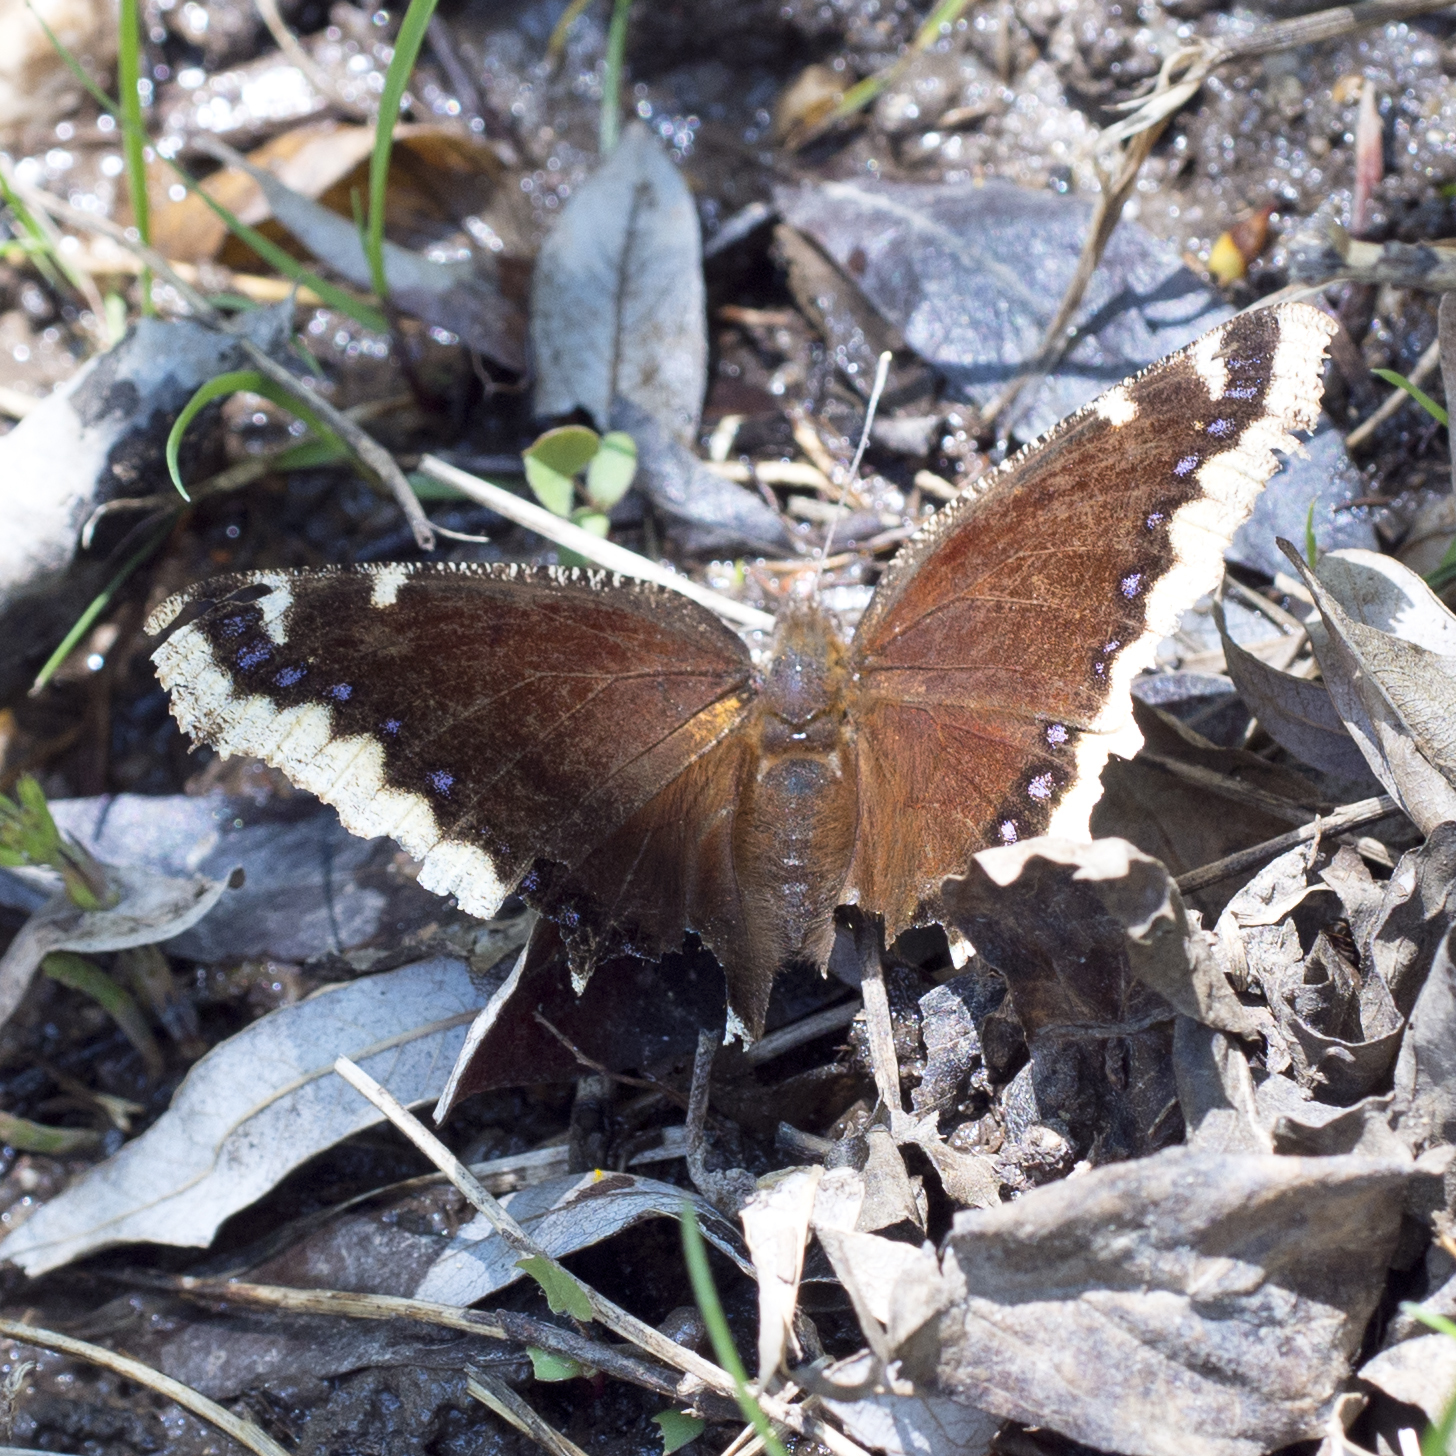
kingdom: Animalia
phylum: Arthropoda
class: Insecta
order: Lepidoptera
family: Nymphalidae
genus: Nymphalis
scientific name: Nymphalis antiopa
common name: Camberwell beauty
